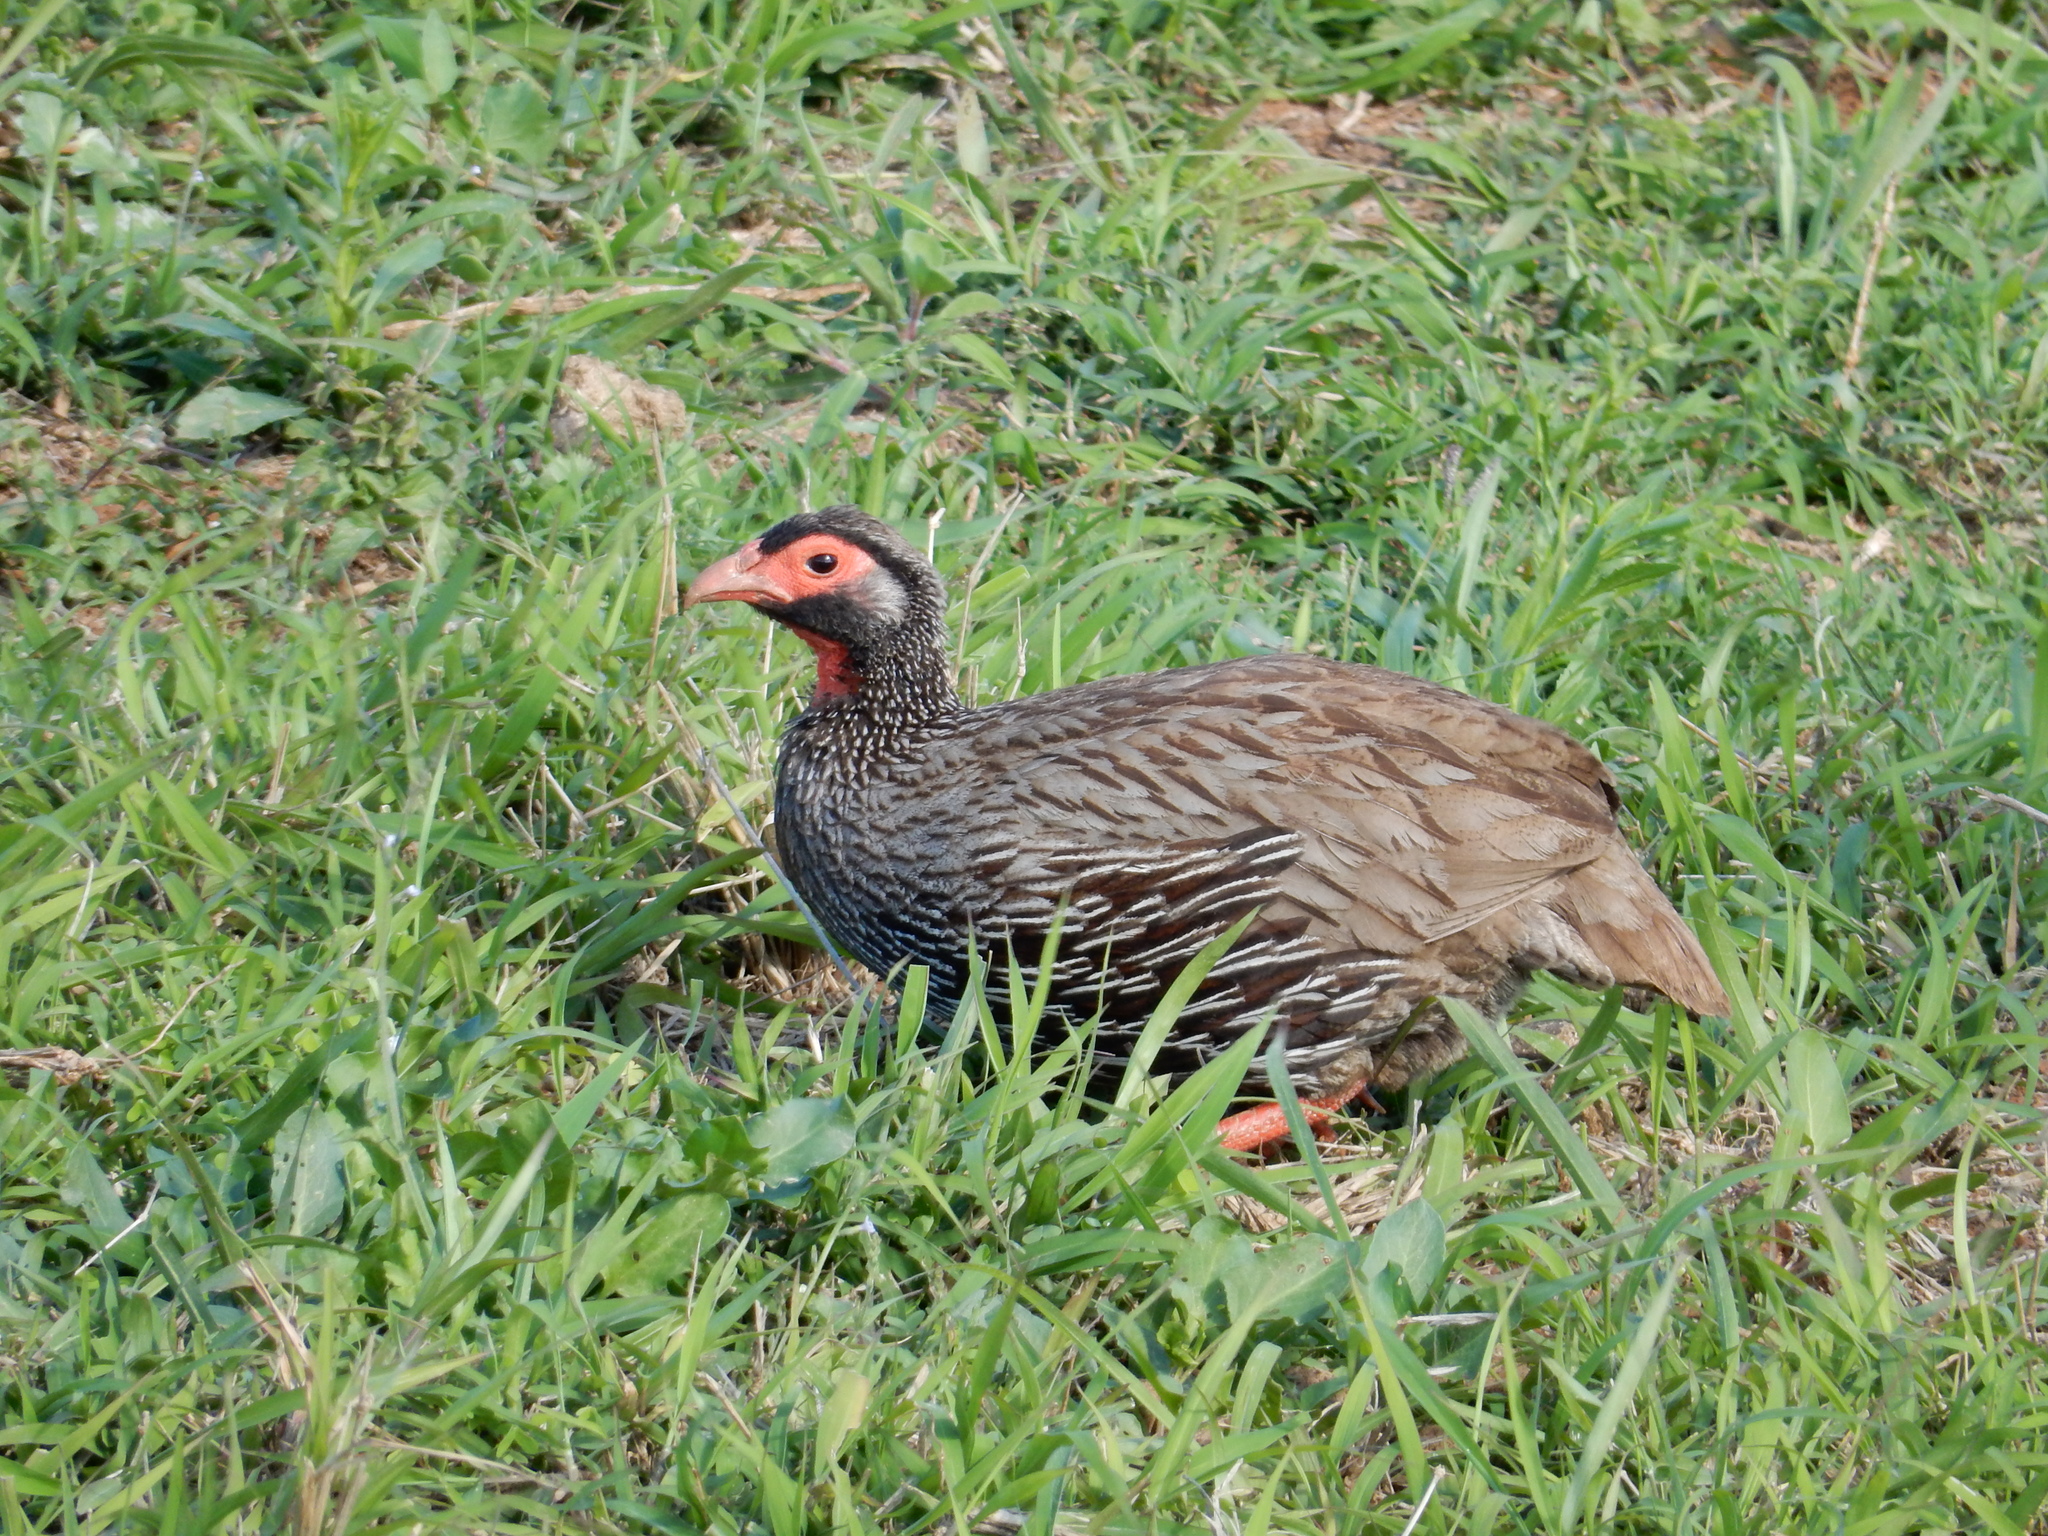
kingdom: Animalia
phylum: Chordata
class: Aves
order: Galliformes
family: Phasianidae
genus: Pternistis
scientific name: Pternistis afer
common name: Red-necked spurfowl
